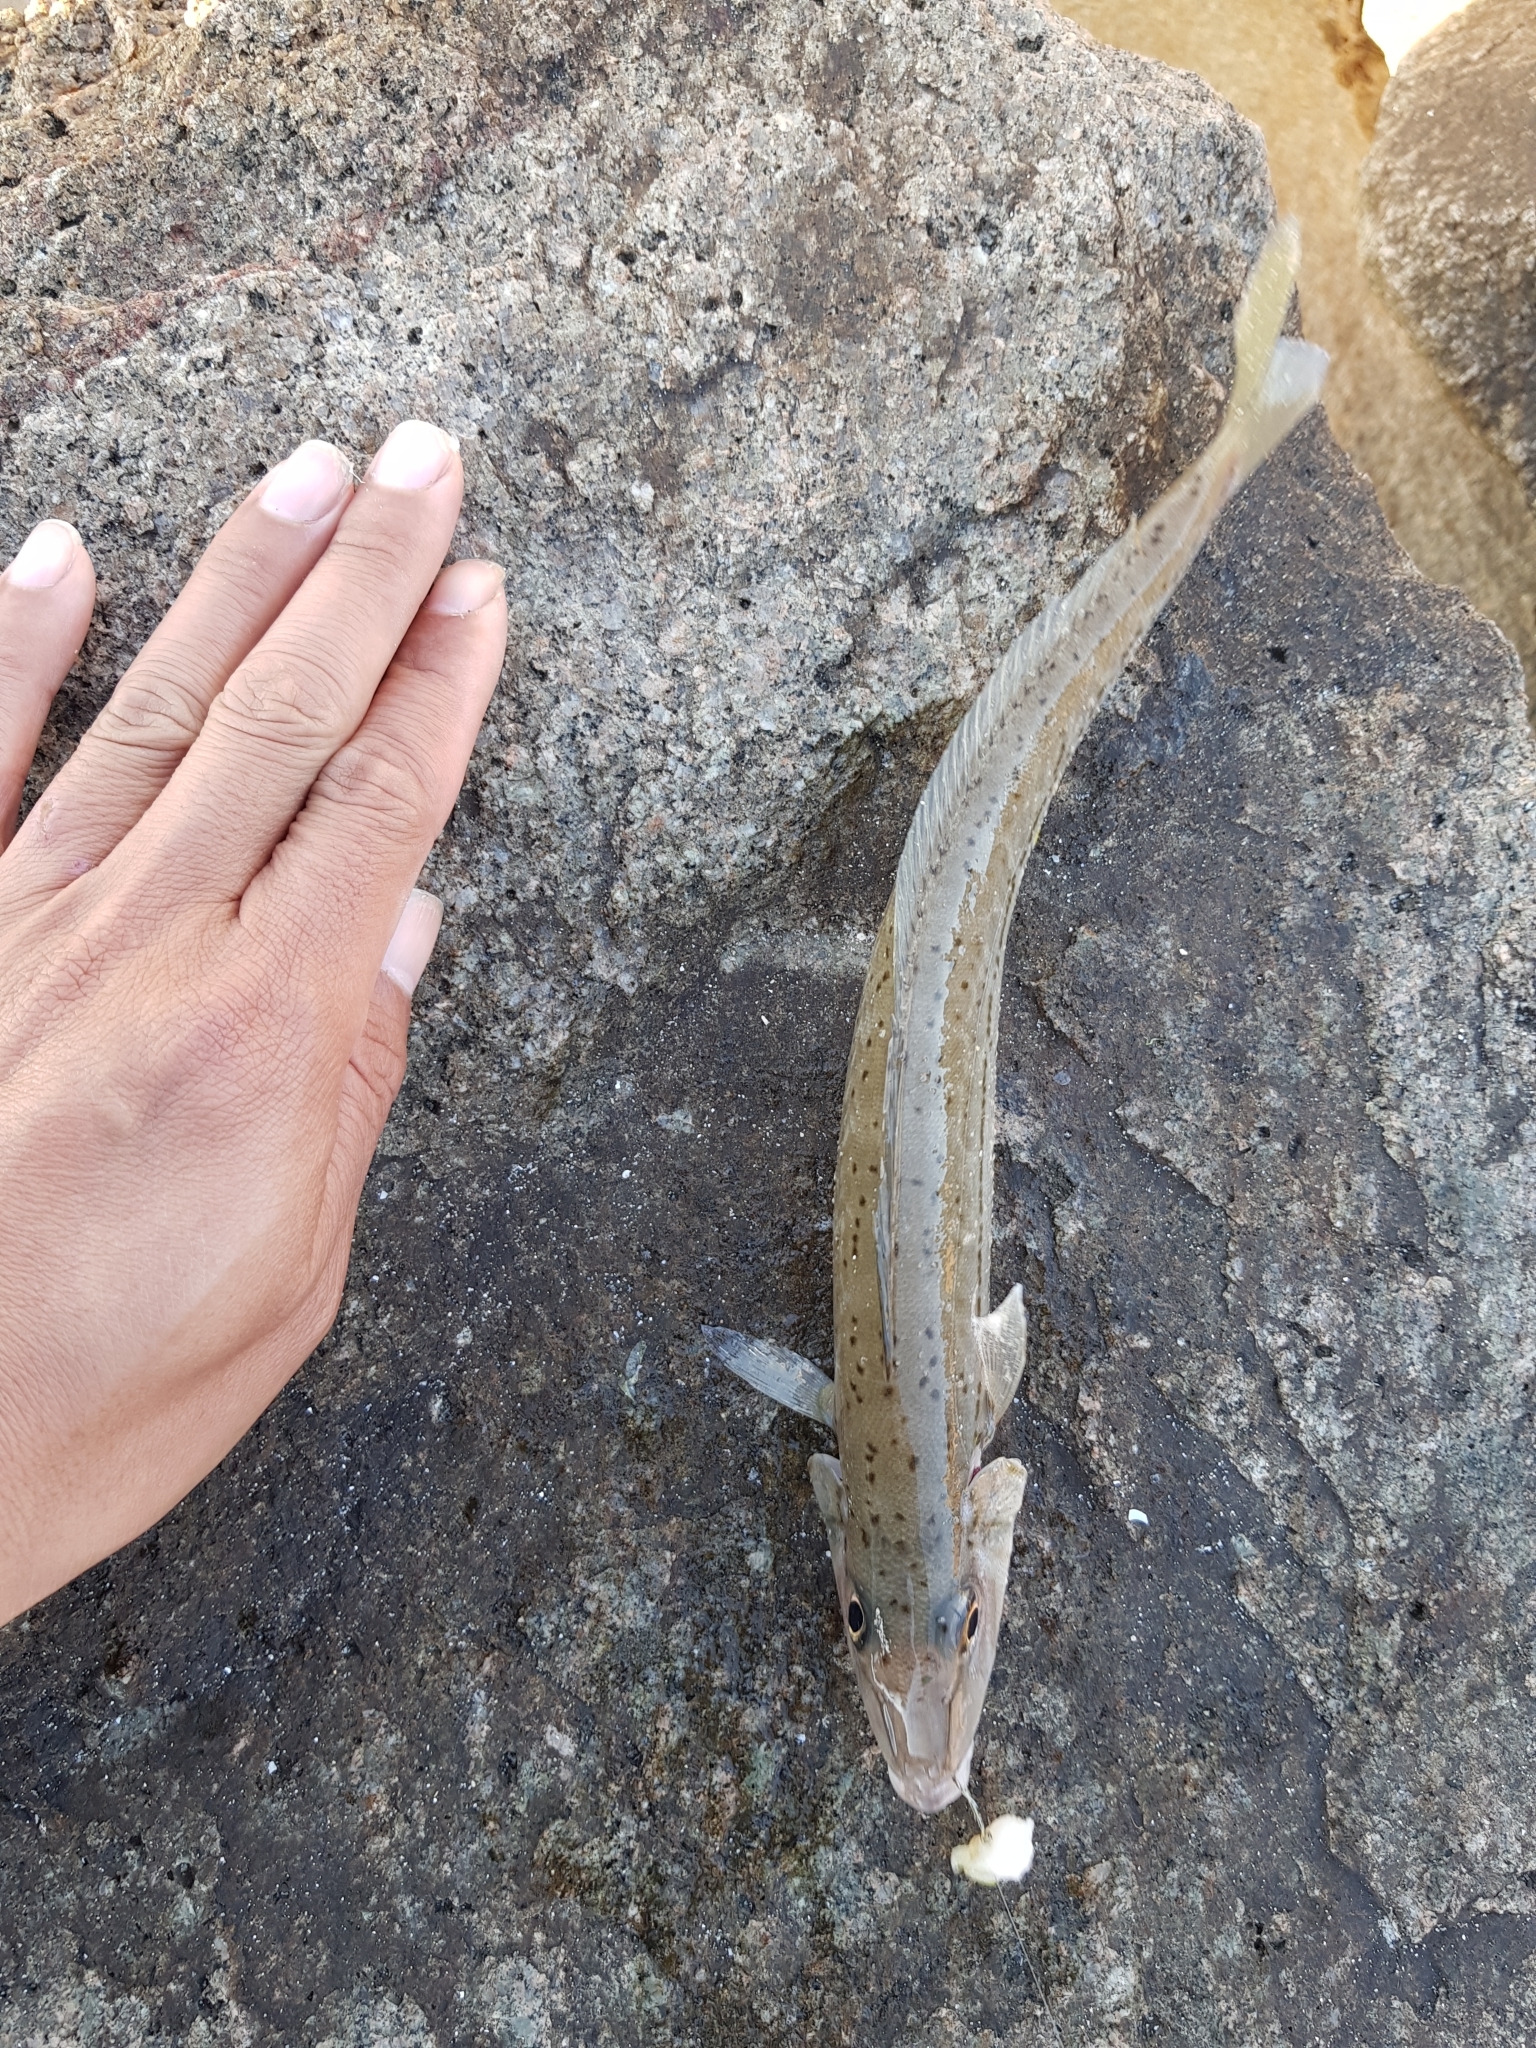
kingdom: Animalia
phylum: Chordata
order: Perciformes
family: Sillaginidae
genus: Sillaginodes
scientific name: Sillaginodes punctatus
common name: King george whiting
